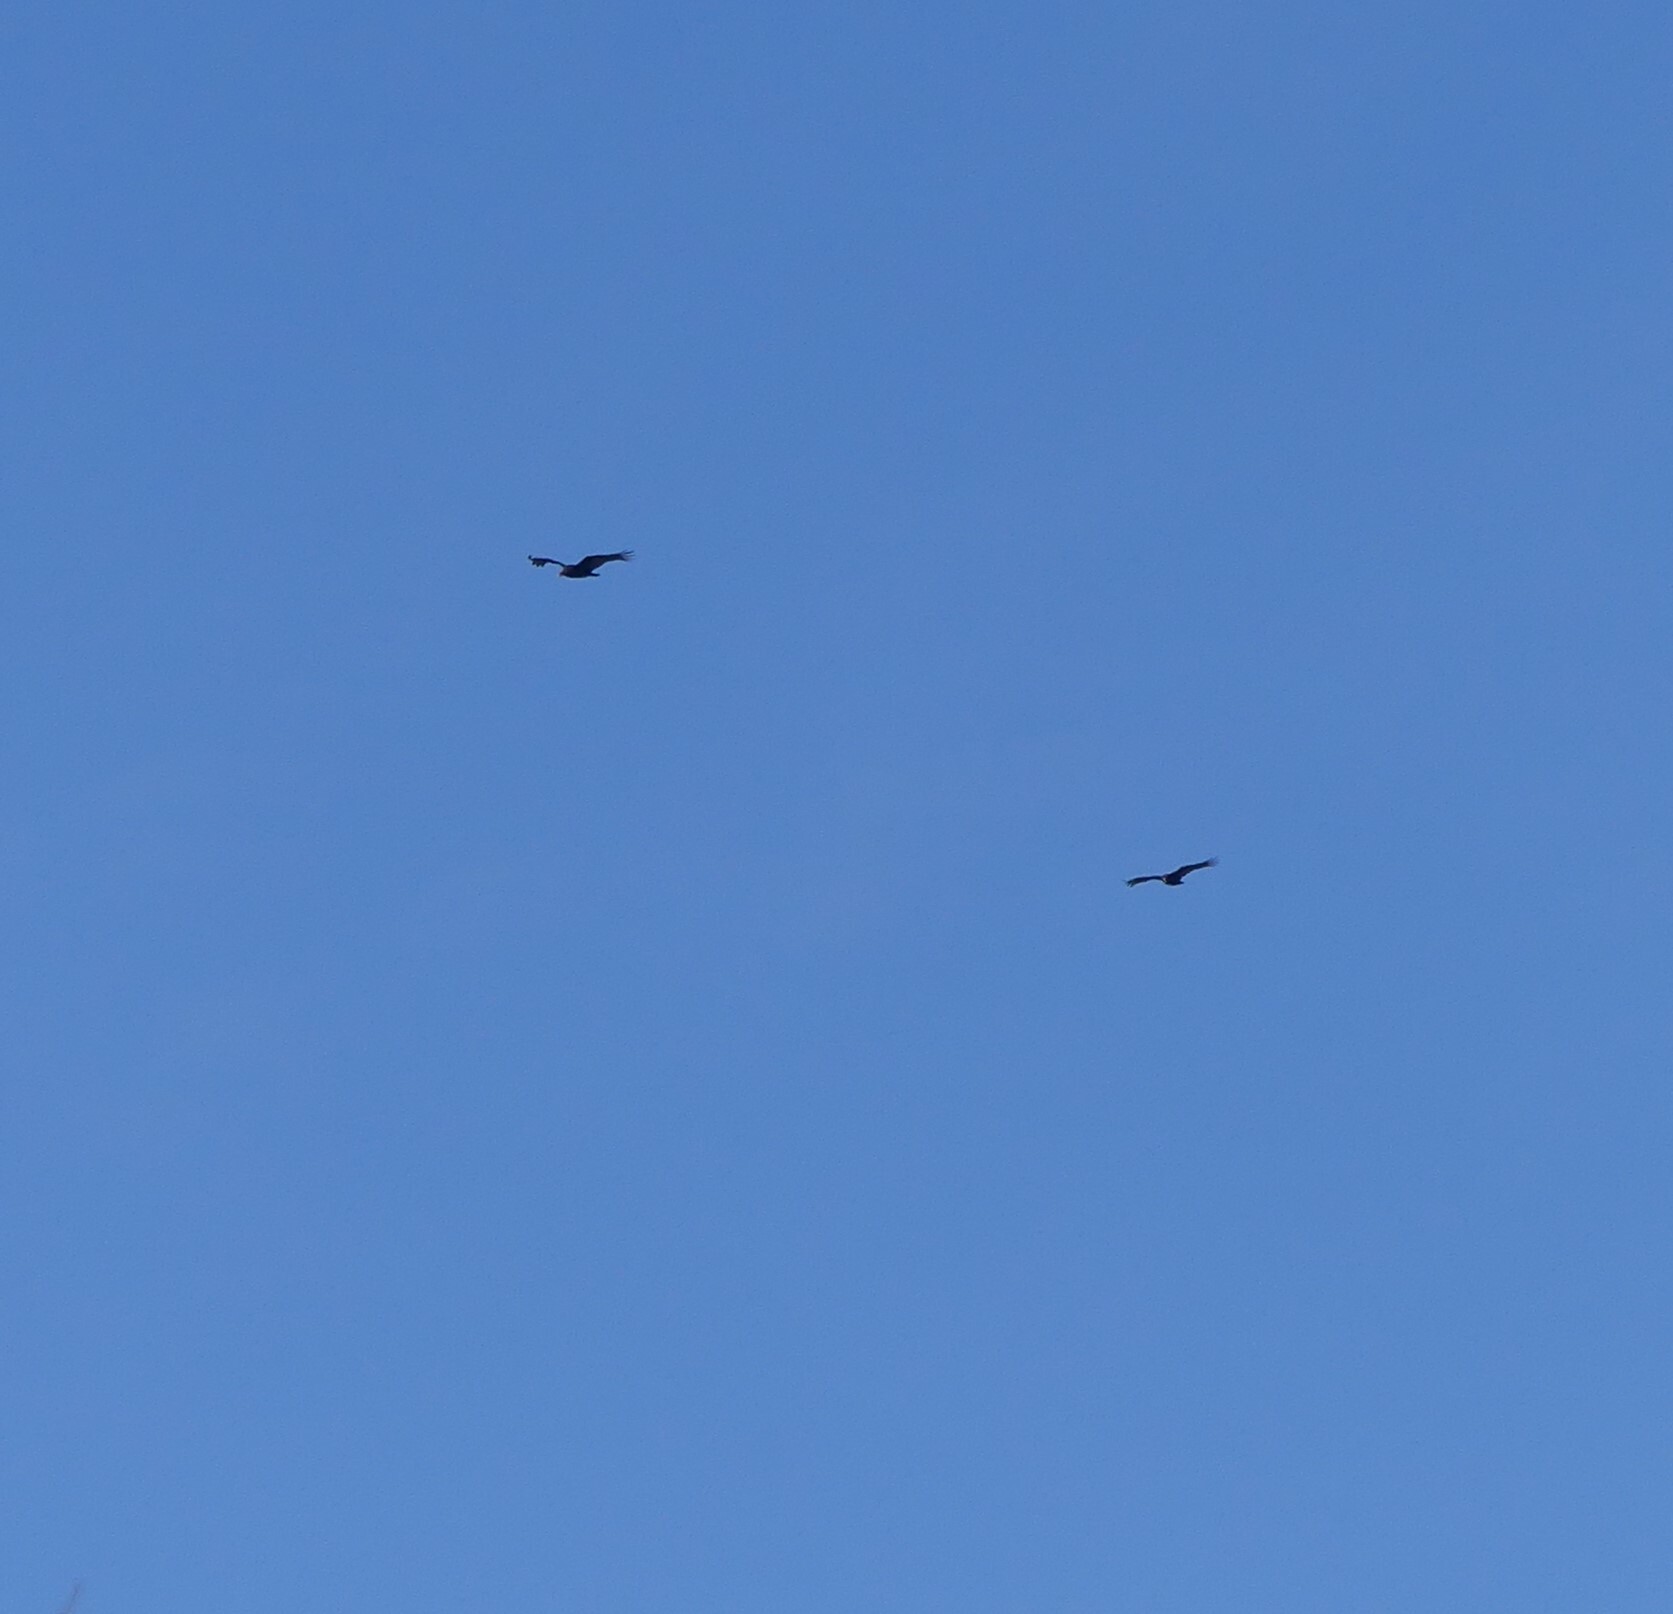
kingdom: Animalia
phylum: Chordata
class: Aves
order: Accipitriformes
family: Cathartidae
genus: Cathartes
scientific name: Cathartes aura
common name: Turkey vulture
